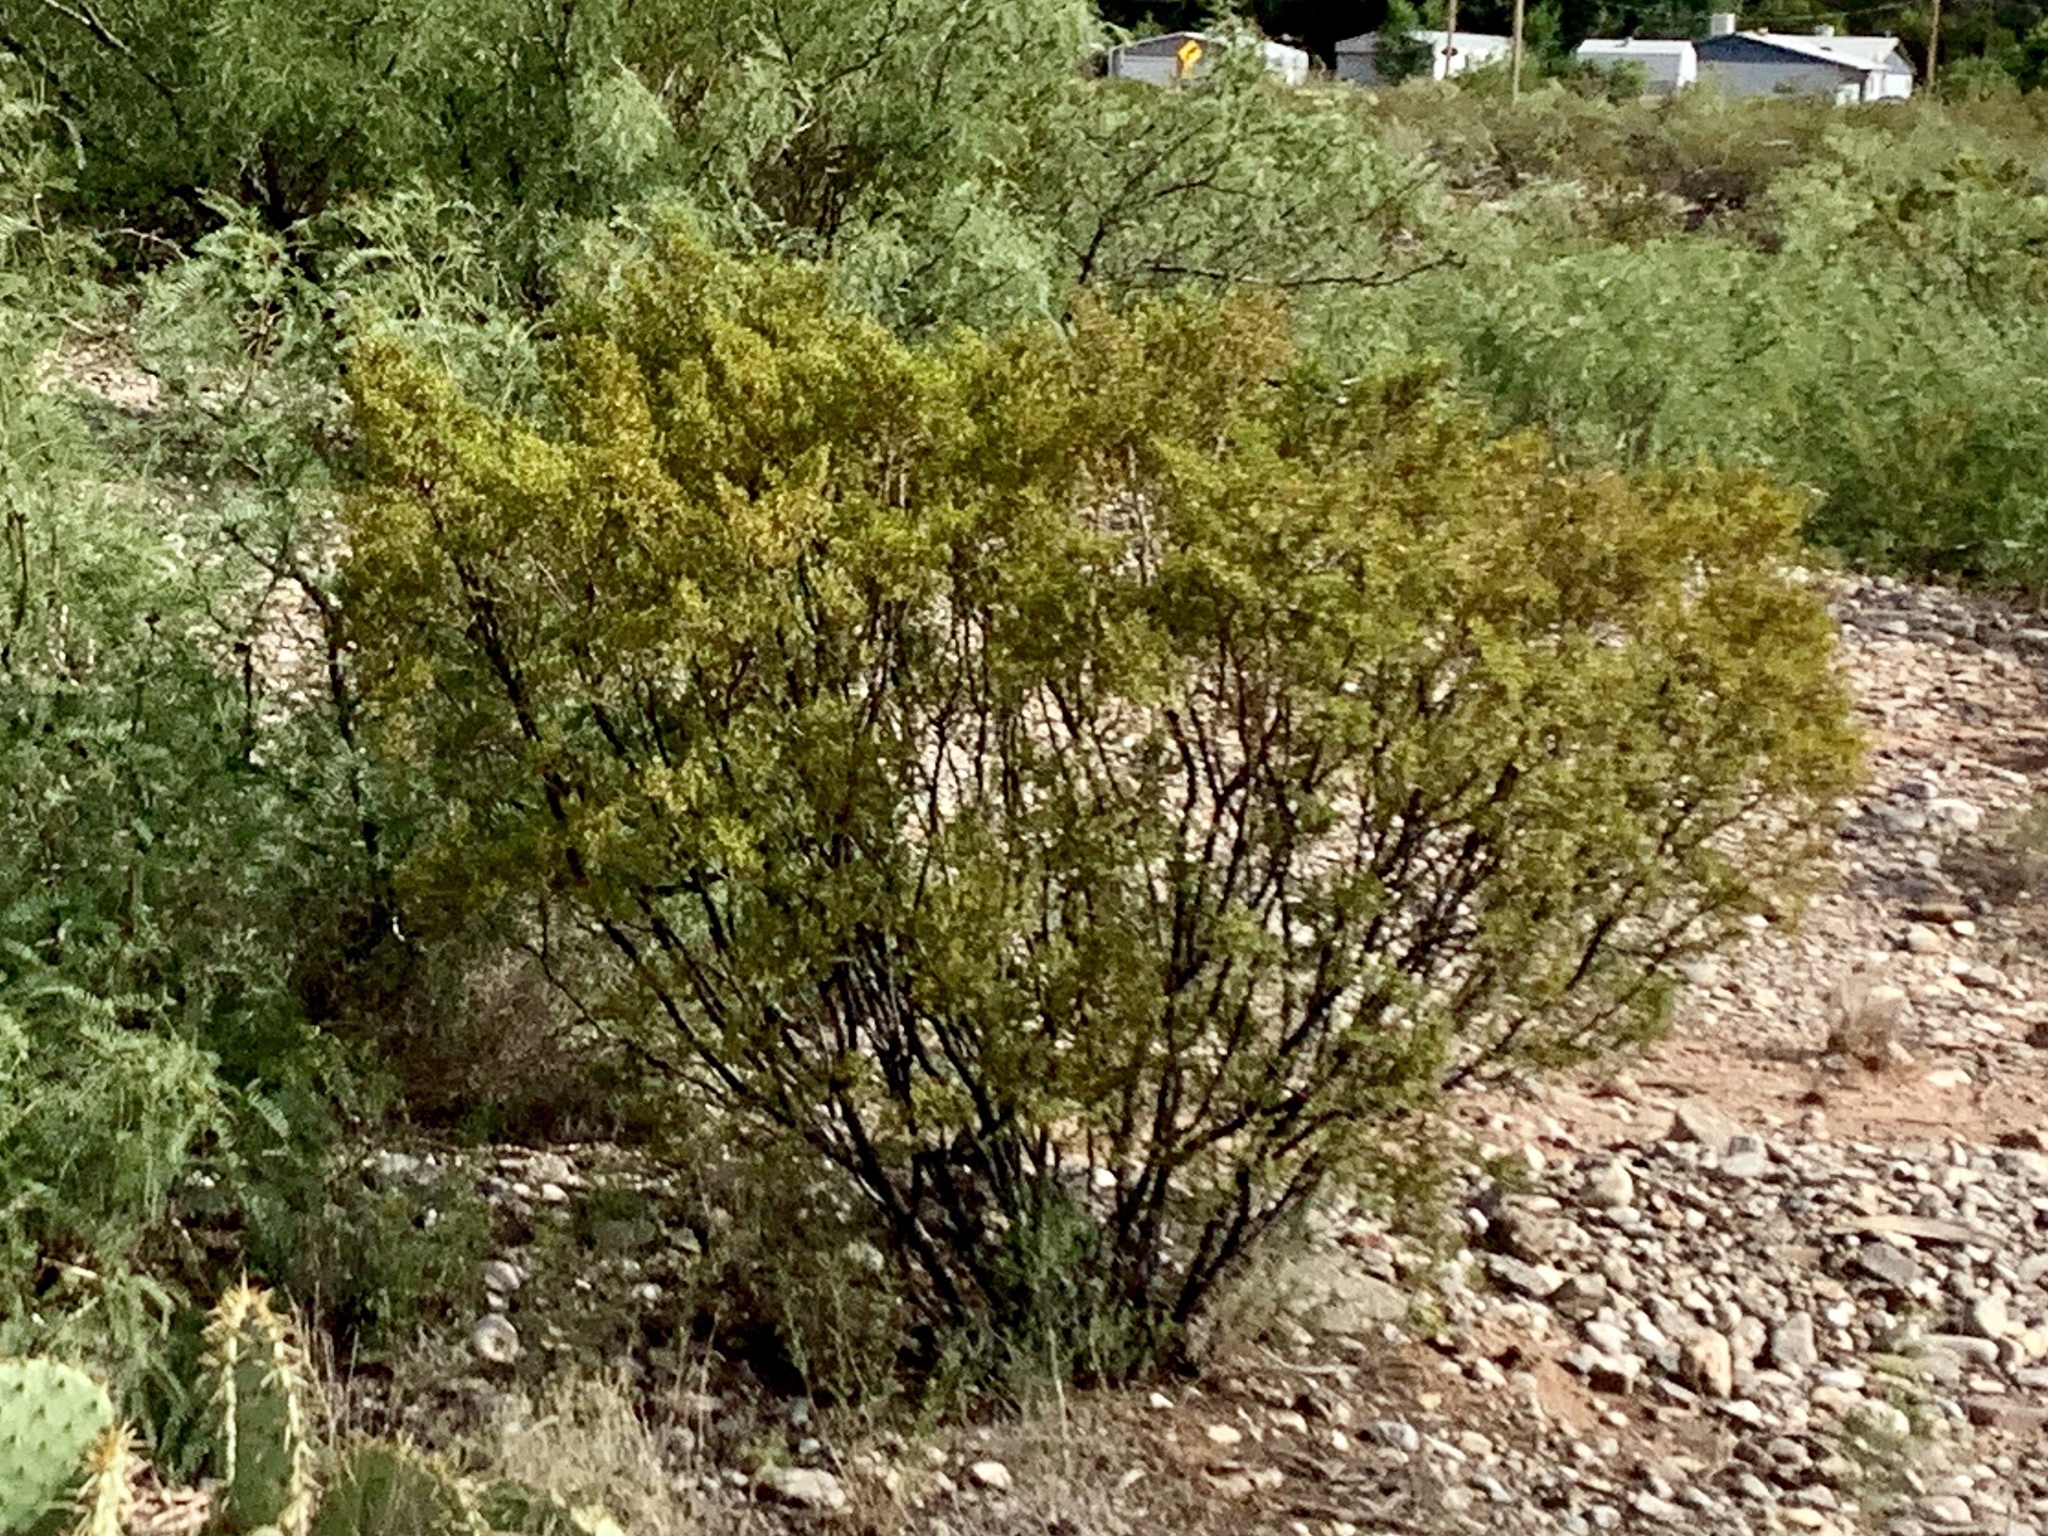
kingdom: Plantae
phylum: Tracheophyta
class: Magnoliopsida
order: Zygophyllales
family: Zygophyllaceae
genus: Larrea
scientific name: Larrea tridentata
